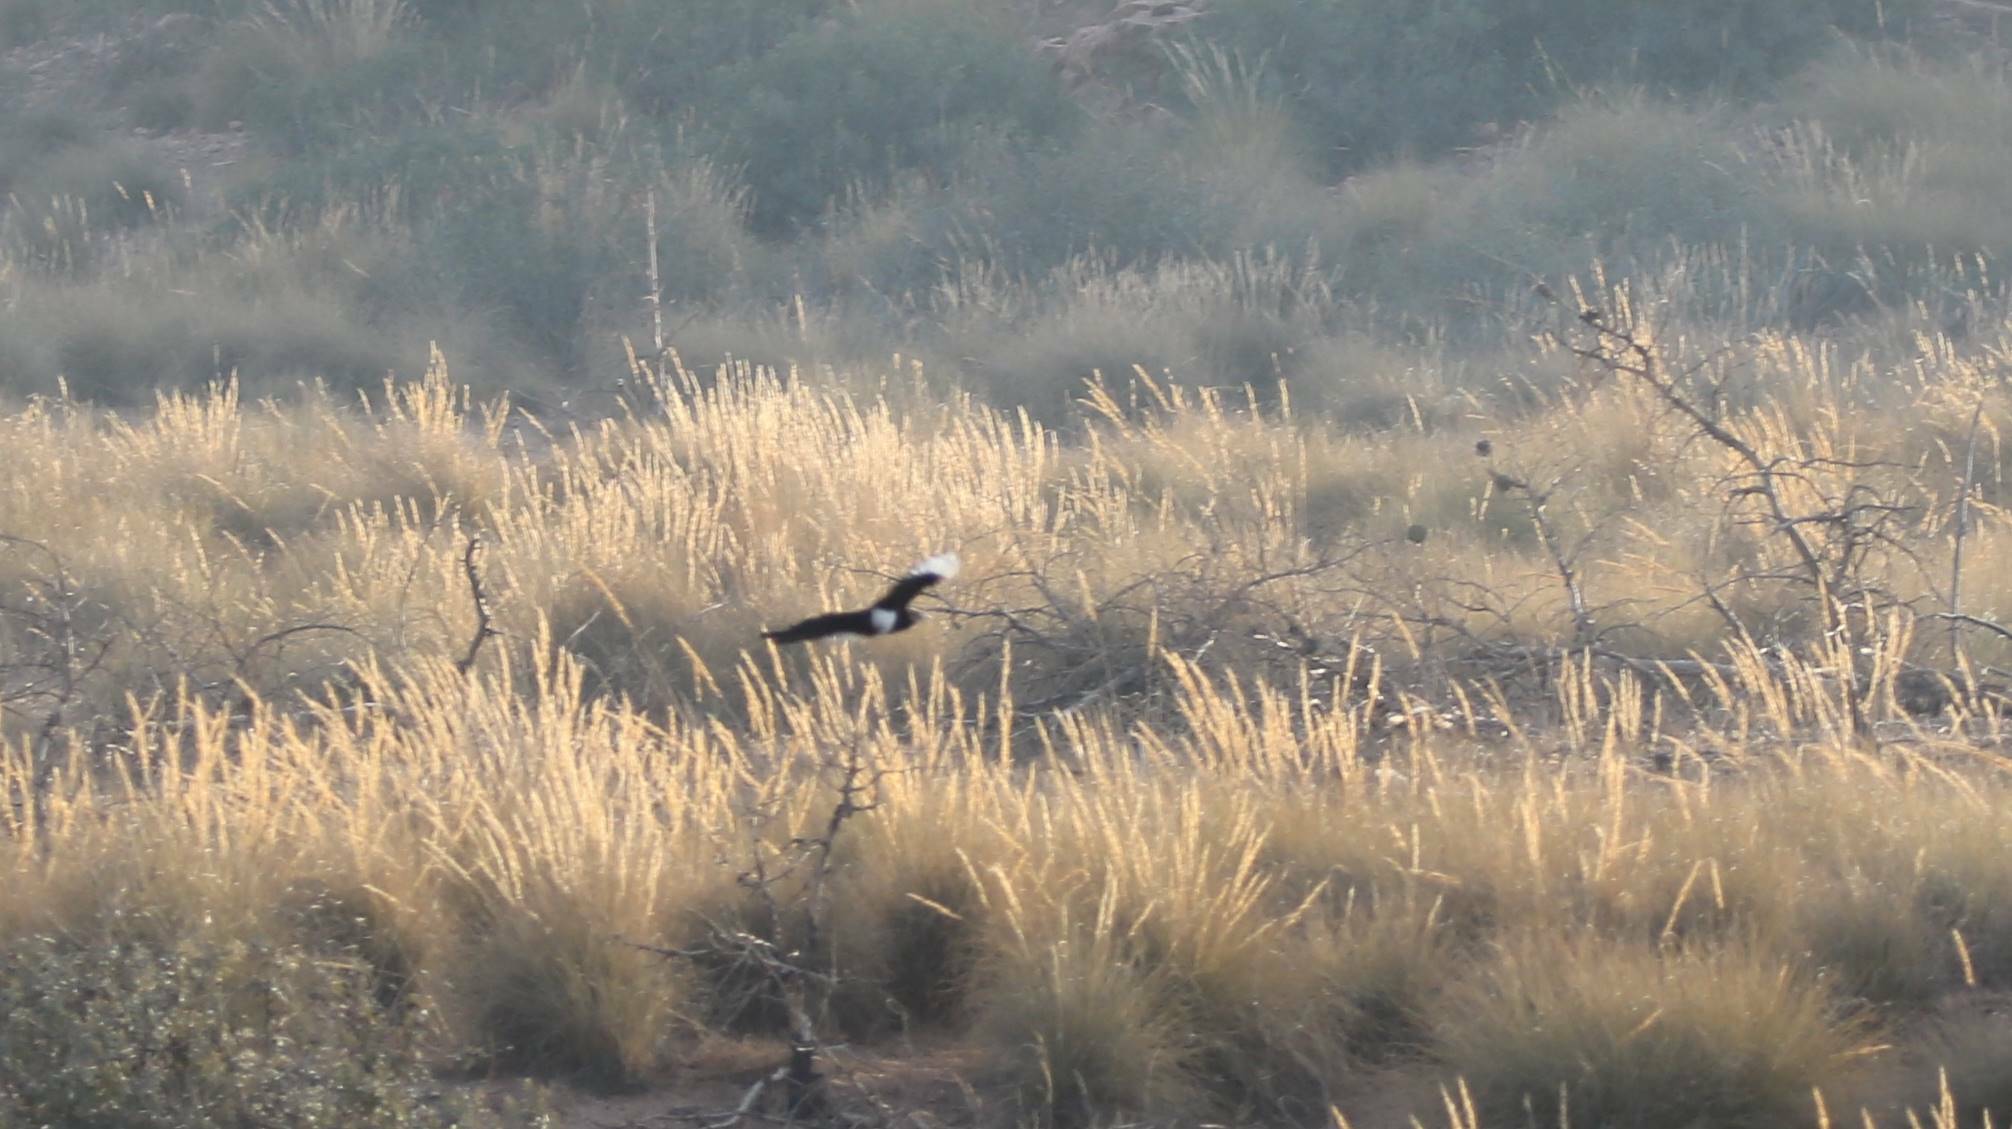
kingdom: Animalia
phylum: Chordata
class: Aves
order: Passeriformes
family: Corvidae
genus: Pica
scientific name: Pica mauritanica
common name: Maghreb magpie
